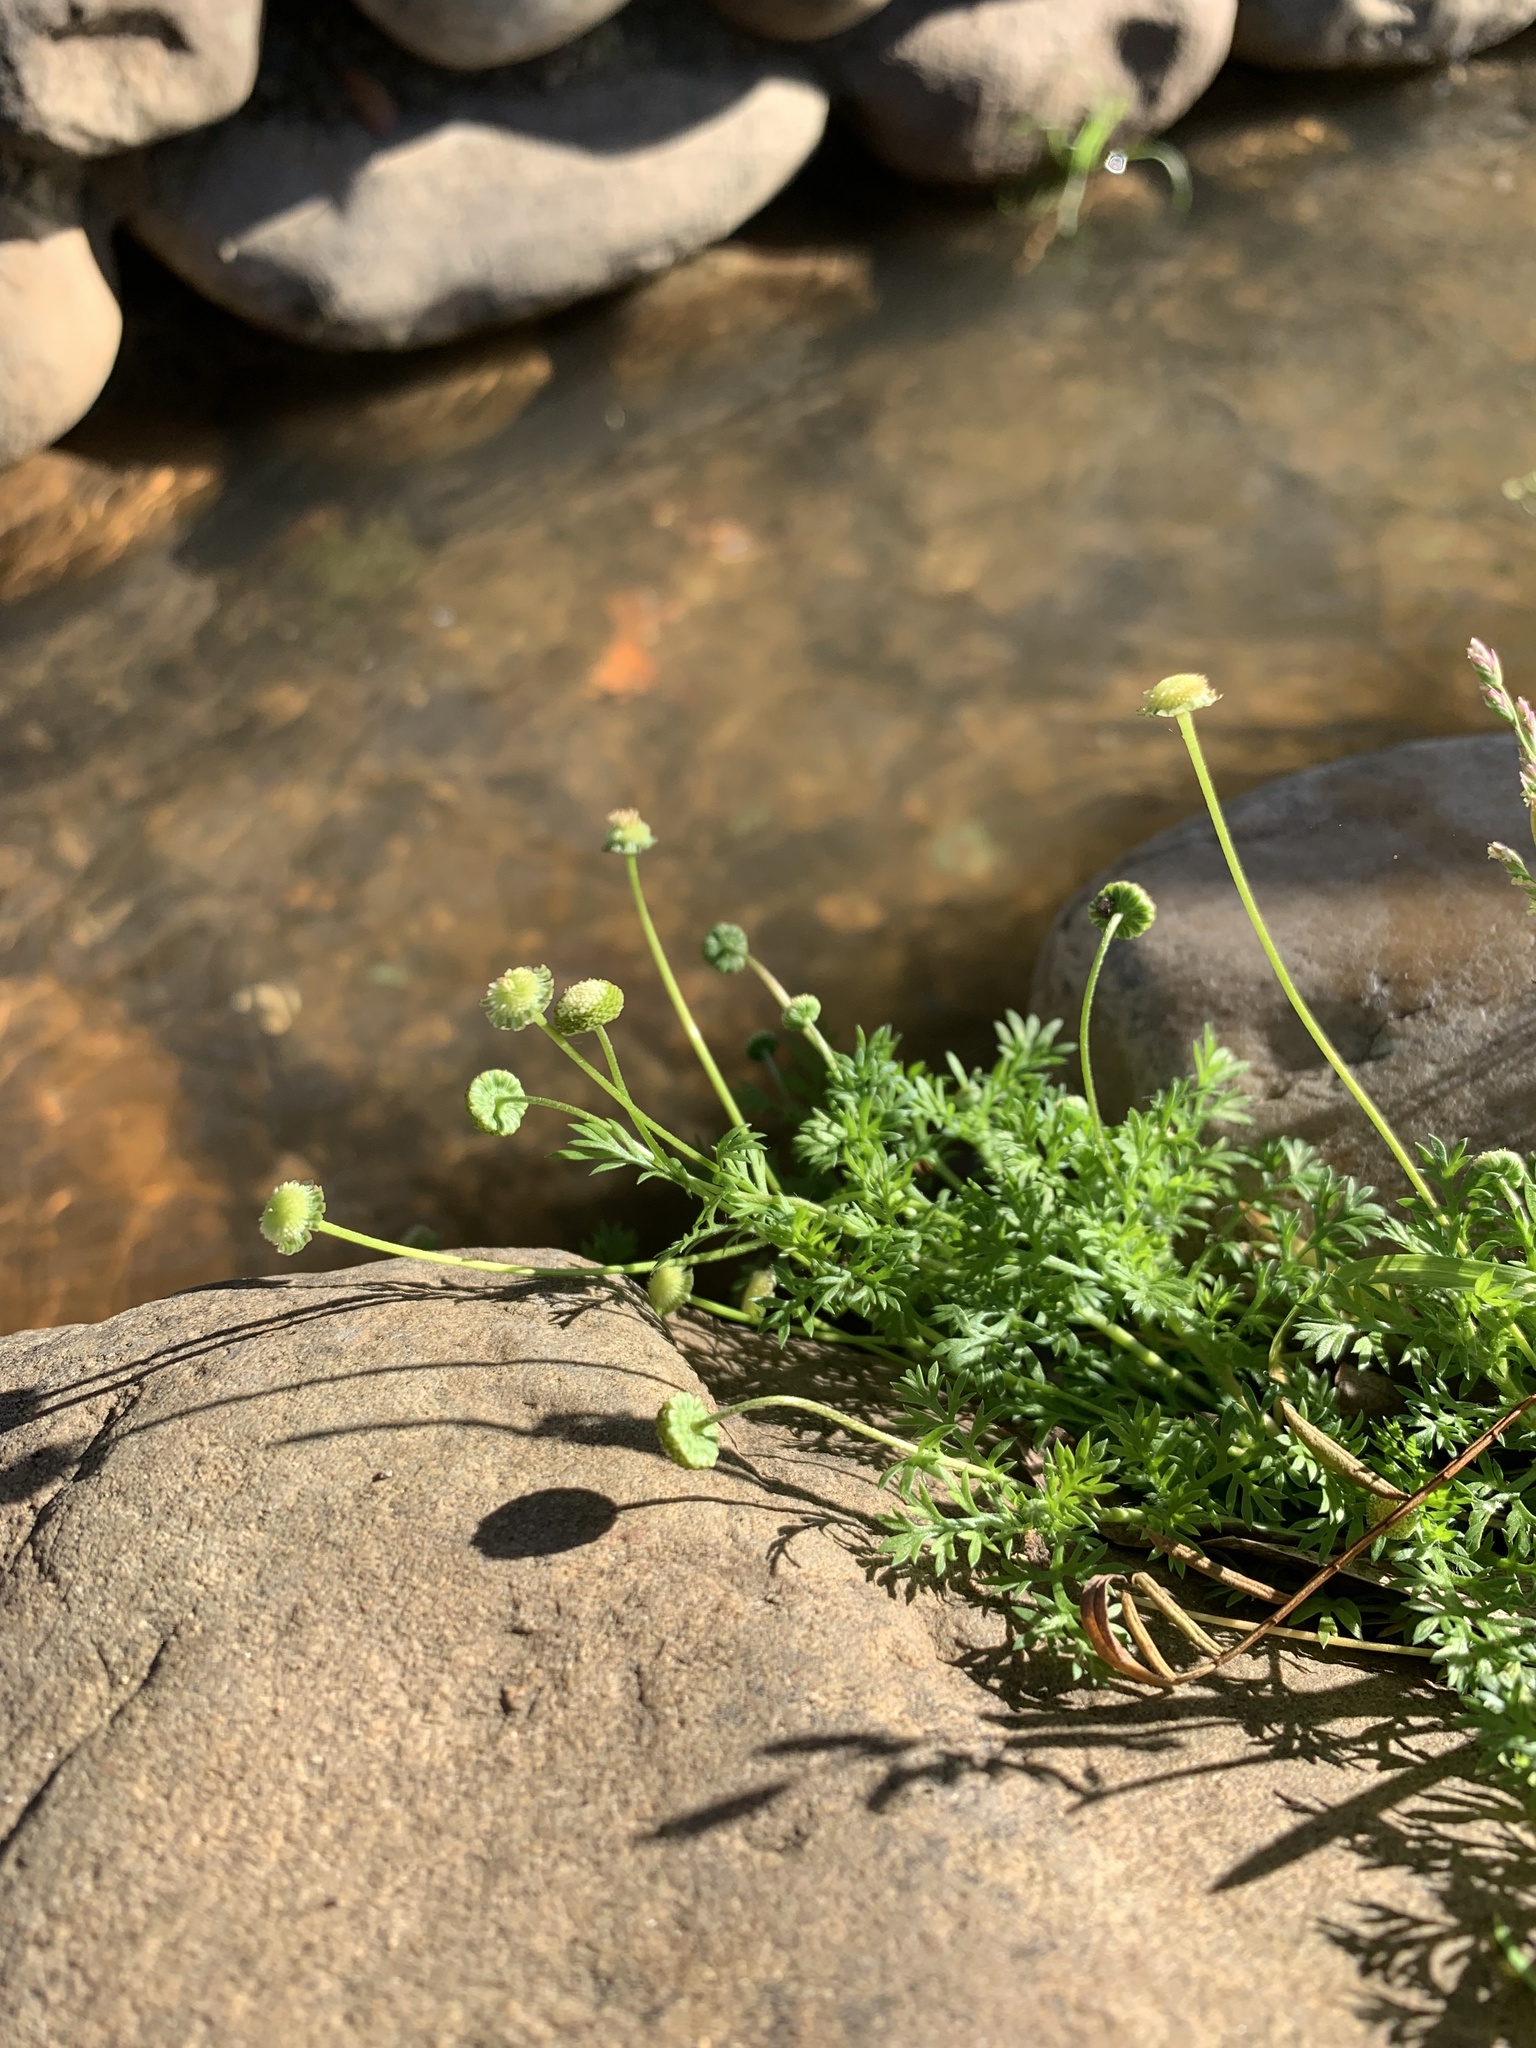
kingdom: Plantae
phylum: Tracheophyta
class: Magnoliopsida
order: Asterales
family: Asteraceae
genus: Cotula
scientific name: Cotula australis
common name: Australian waterbuttons
